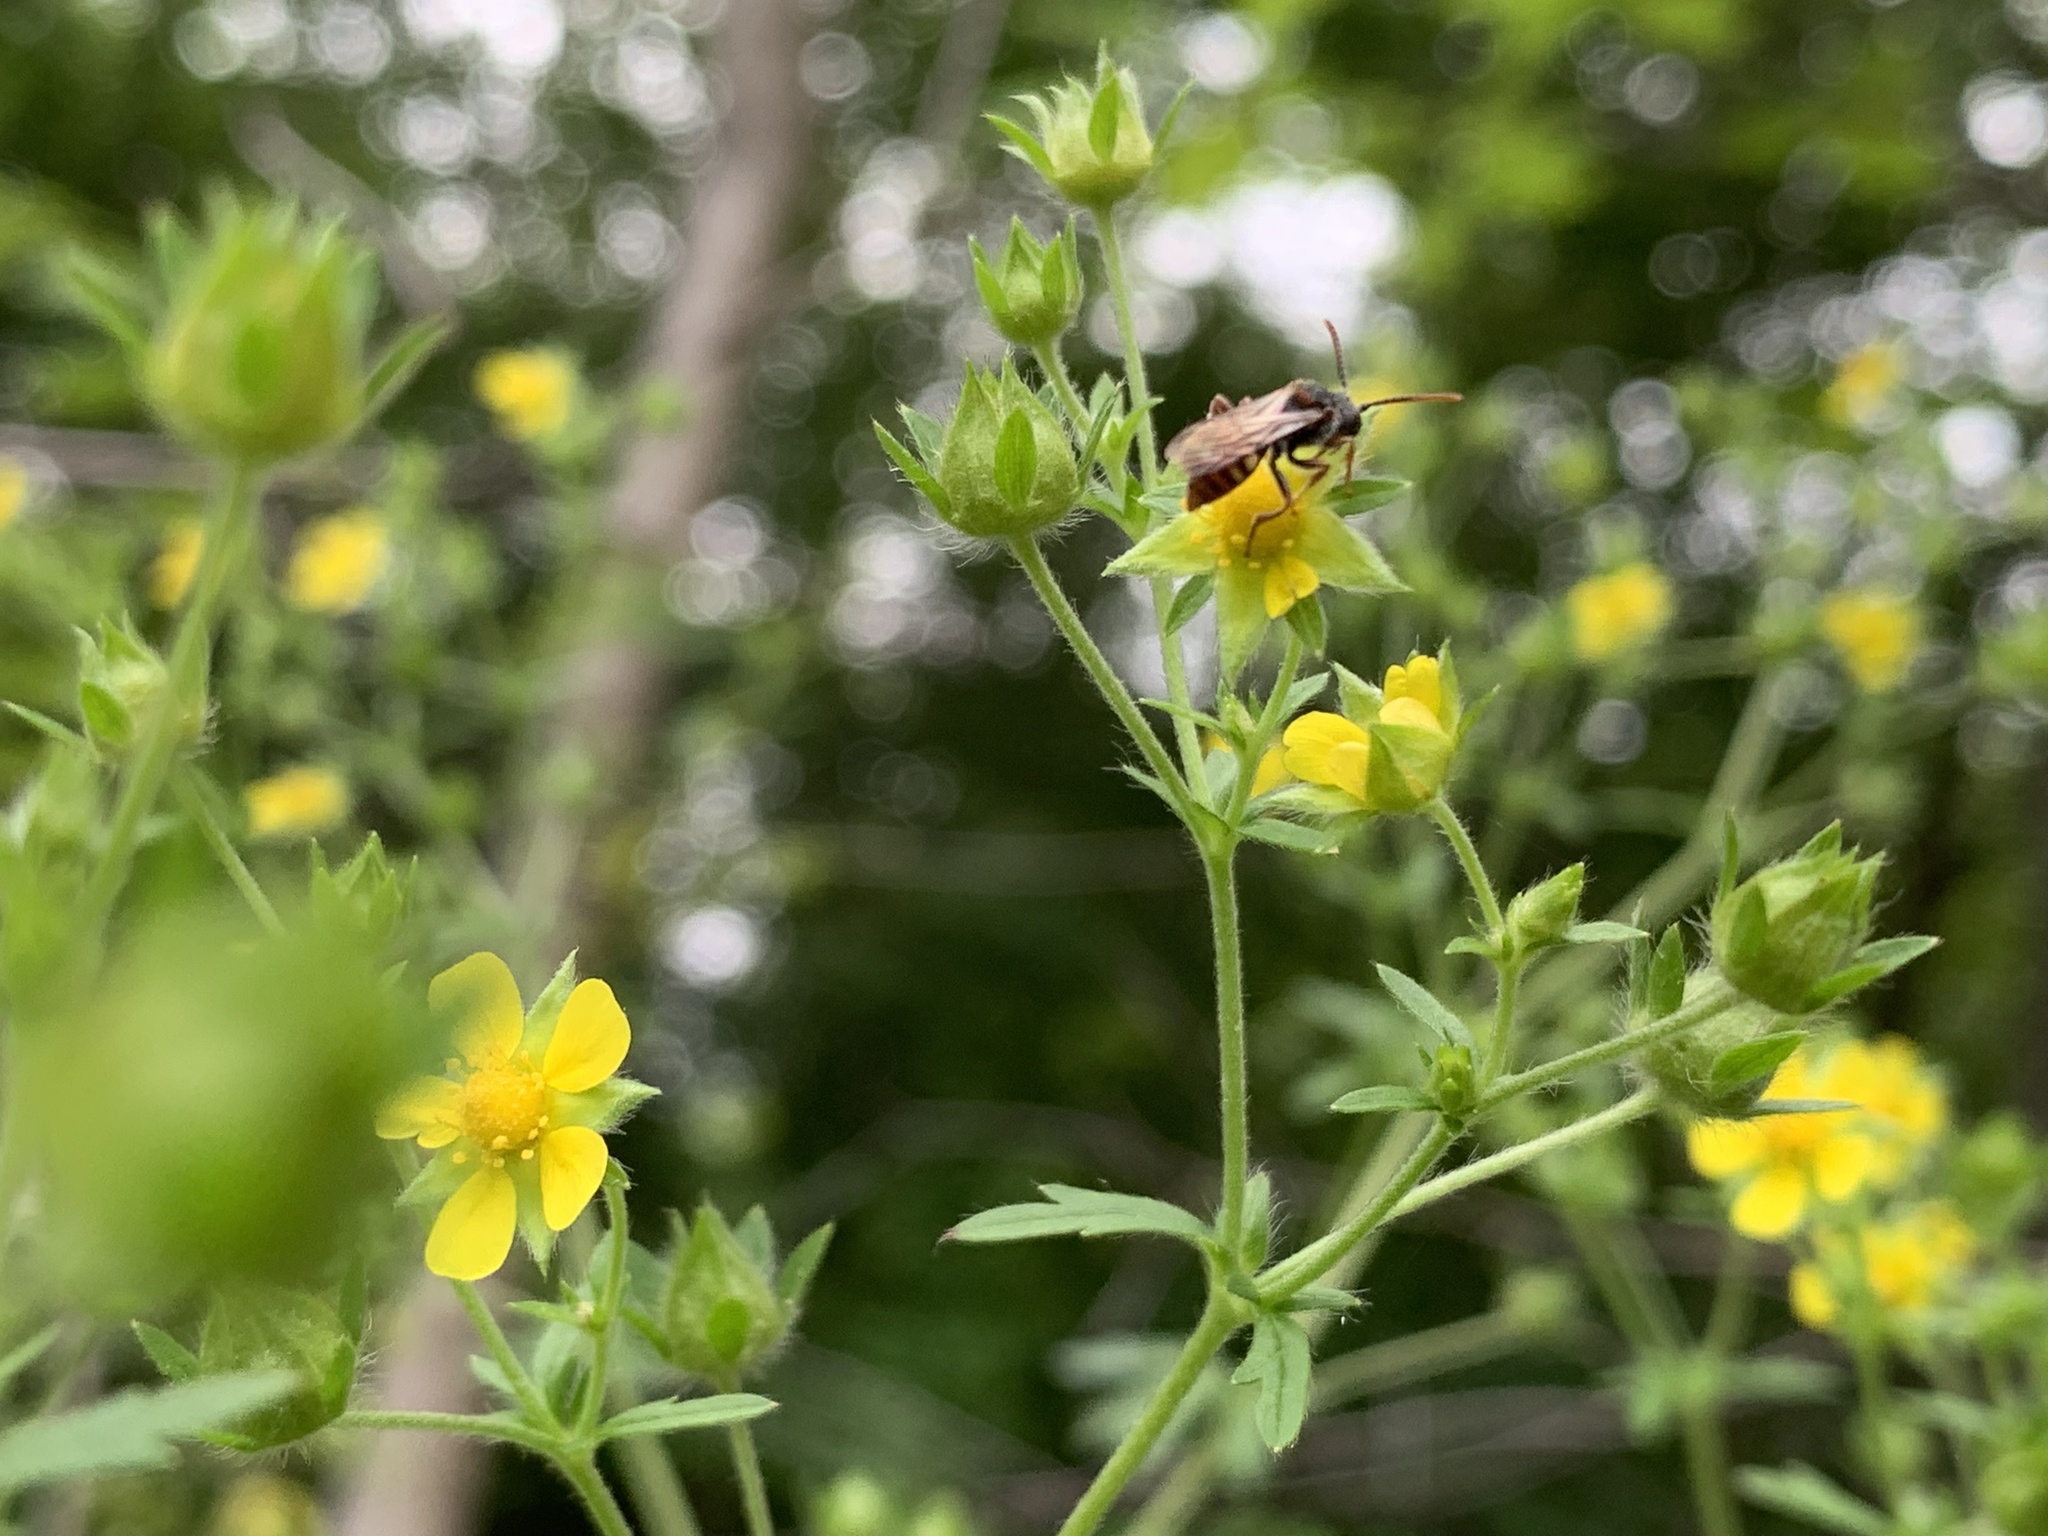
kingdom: Animalia
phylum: Arthropoda
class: Insecta
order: Hymenoptera
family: Apidae
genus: Nomada
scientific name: Nomada
